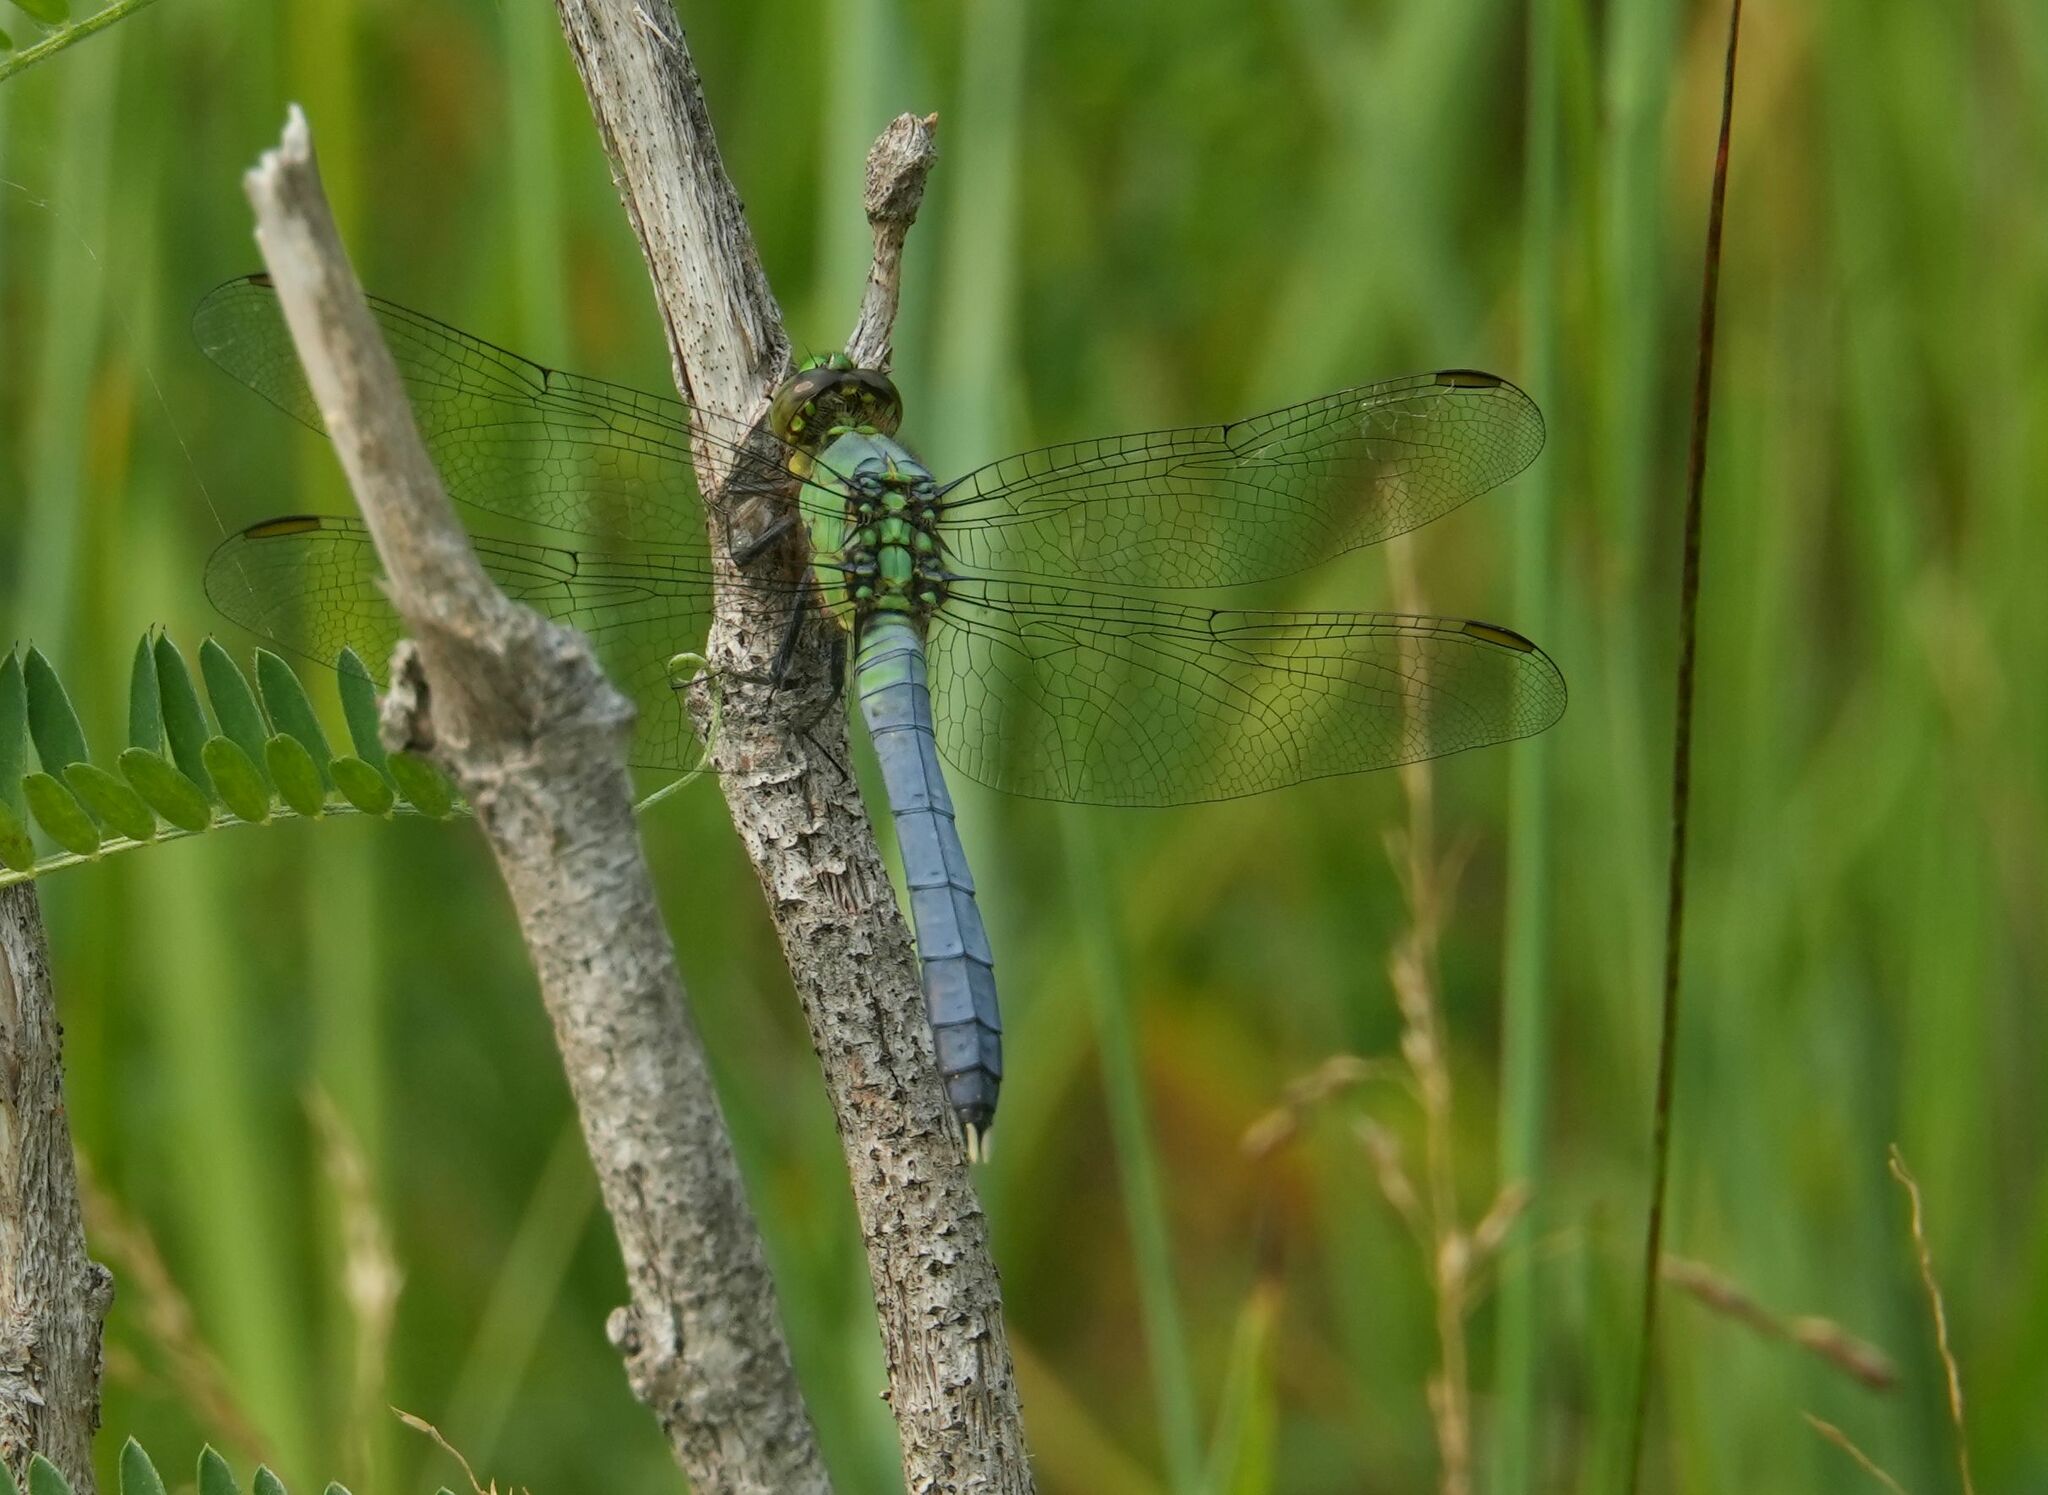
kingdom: Animalia
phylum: Arthropoda
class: Insecta
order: Odonata
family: Libellulidae
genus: Erythemis
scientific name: Erythemis simplicicollis
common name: Eastern pondhawk
